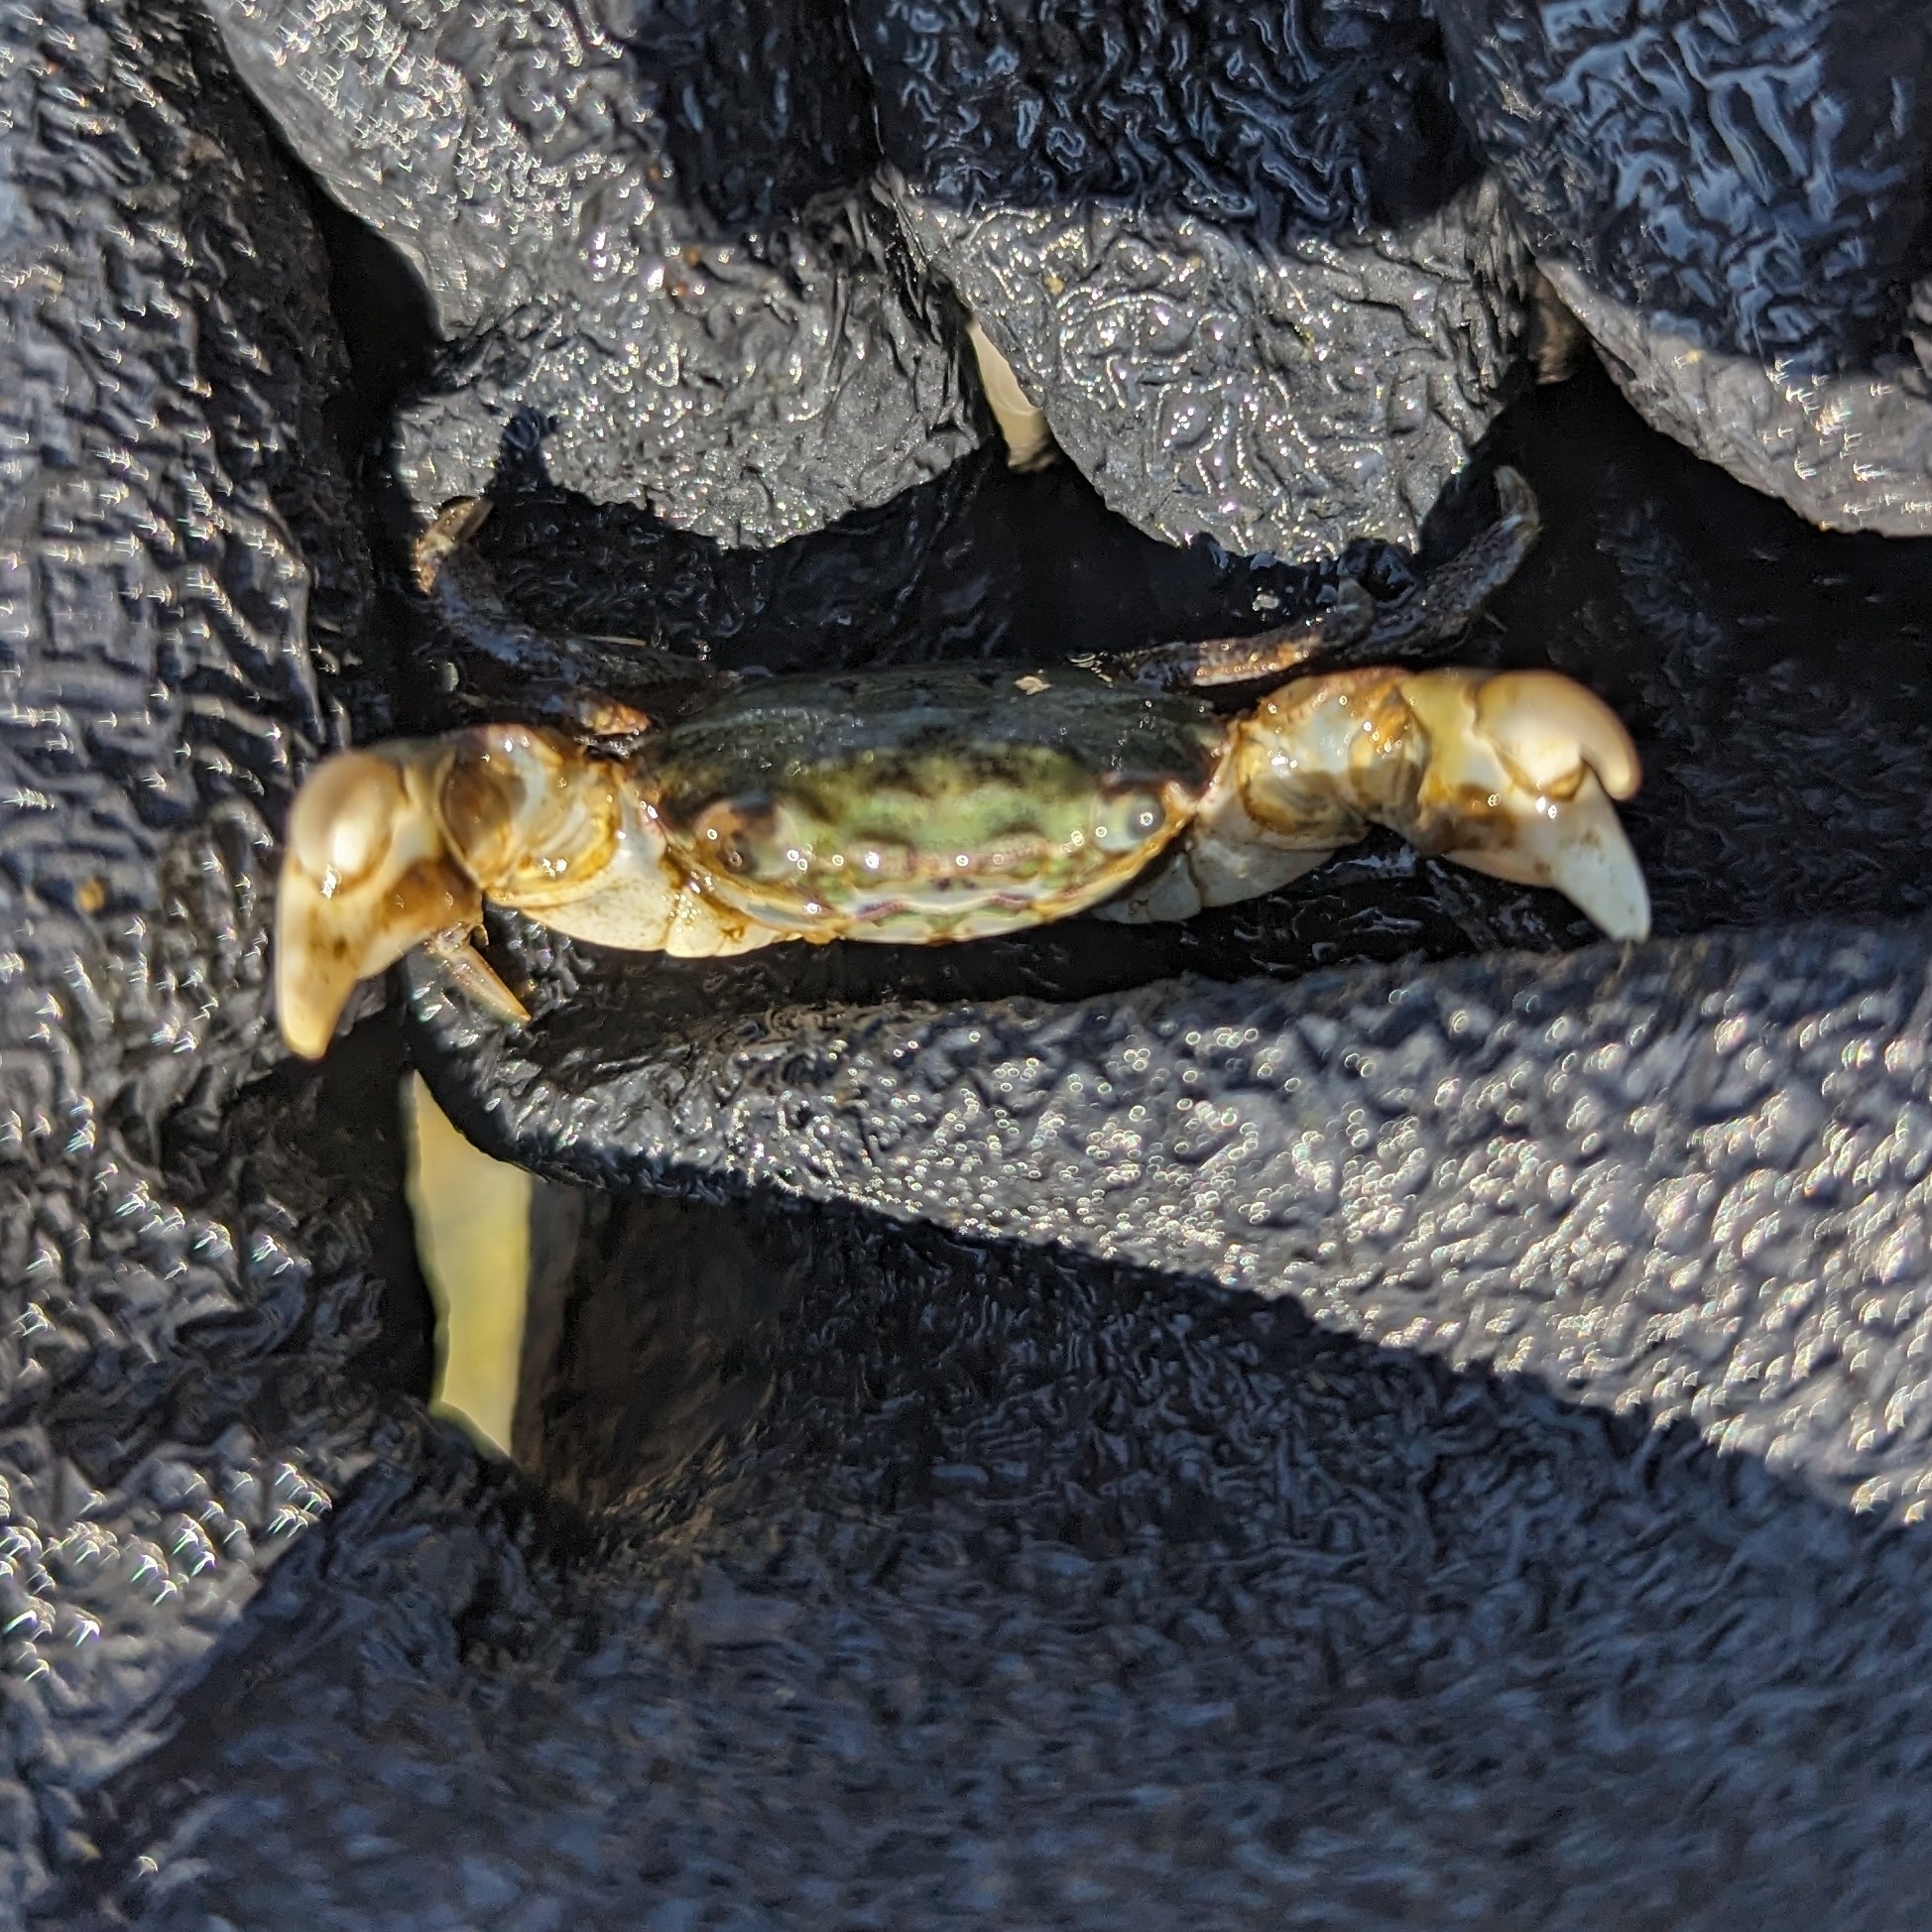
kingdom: Animalia
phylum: Arthropoda
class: Malacostraca
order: Decapoda
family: Varunidae
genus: Hemigrapsus
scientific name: Hemigrapsus oregonensis
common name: Yellow shore crab
